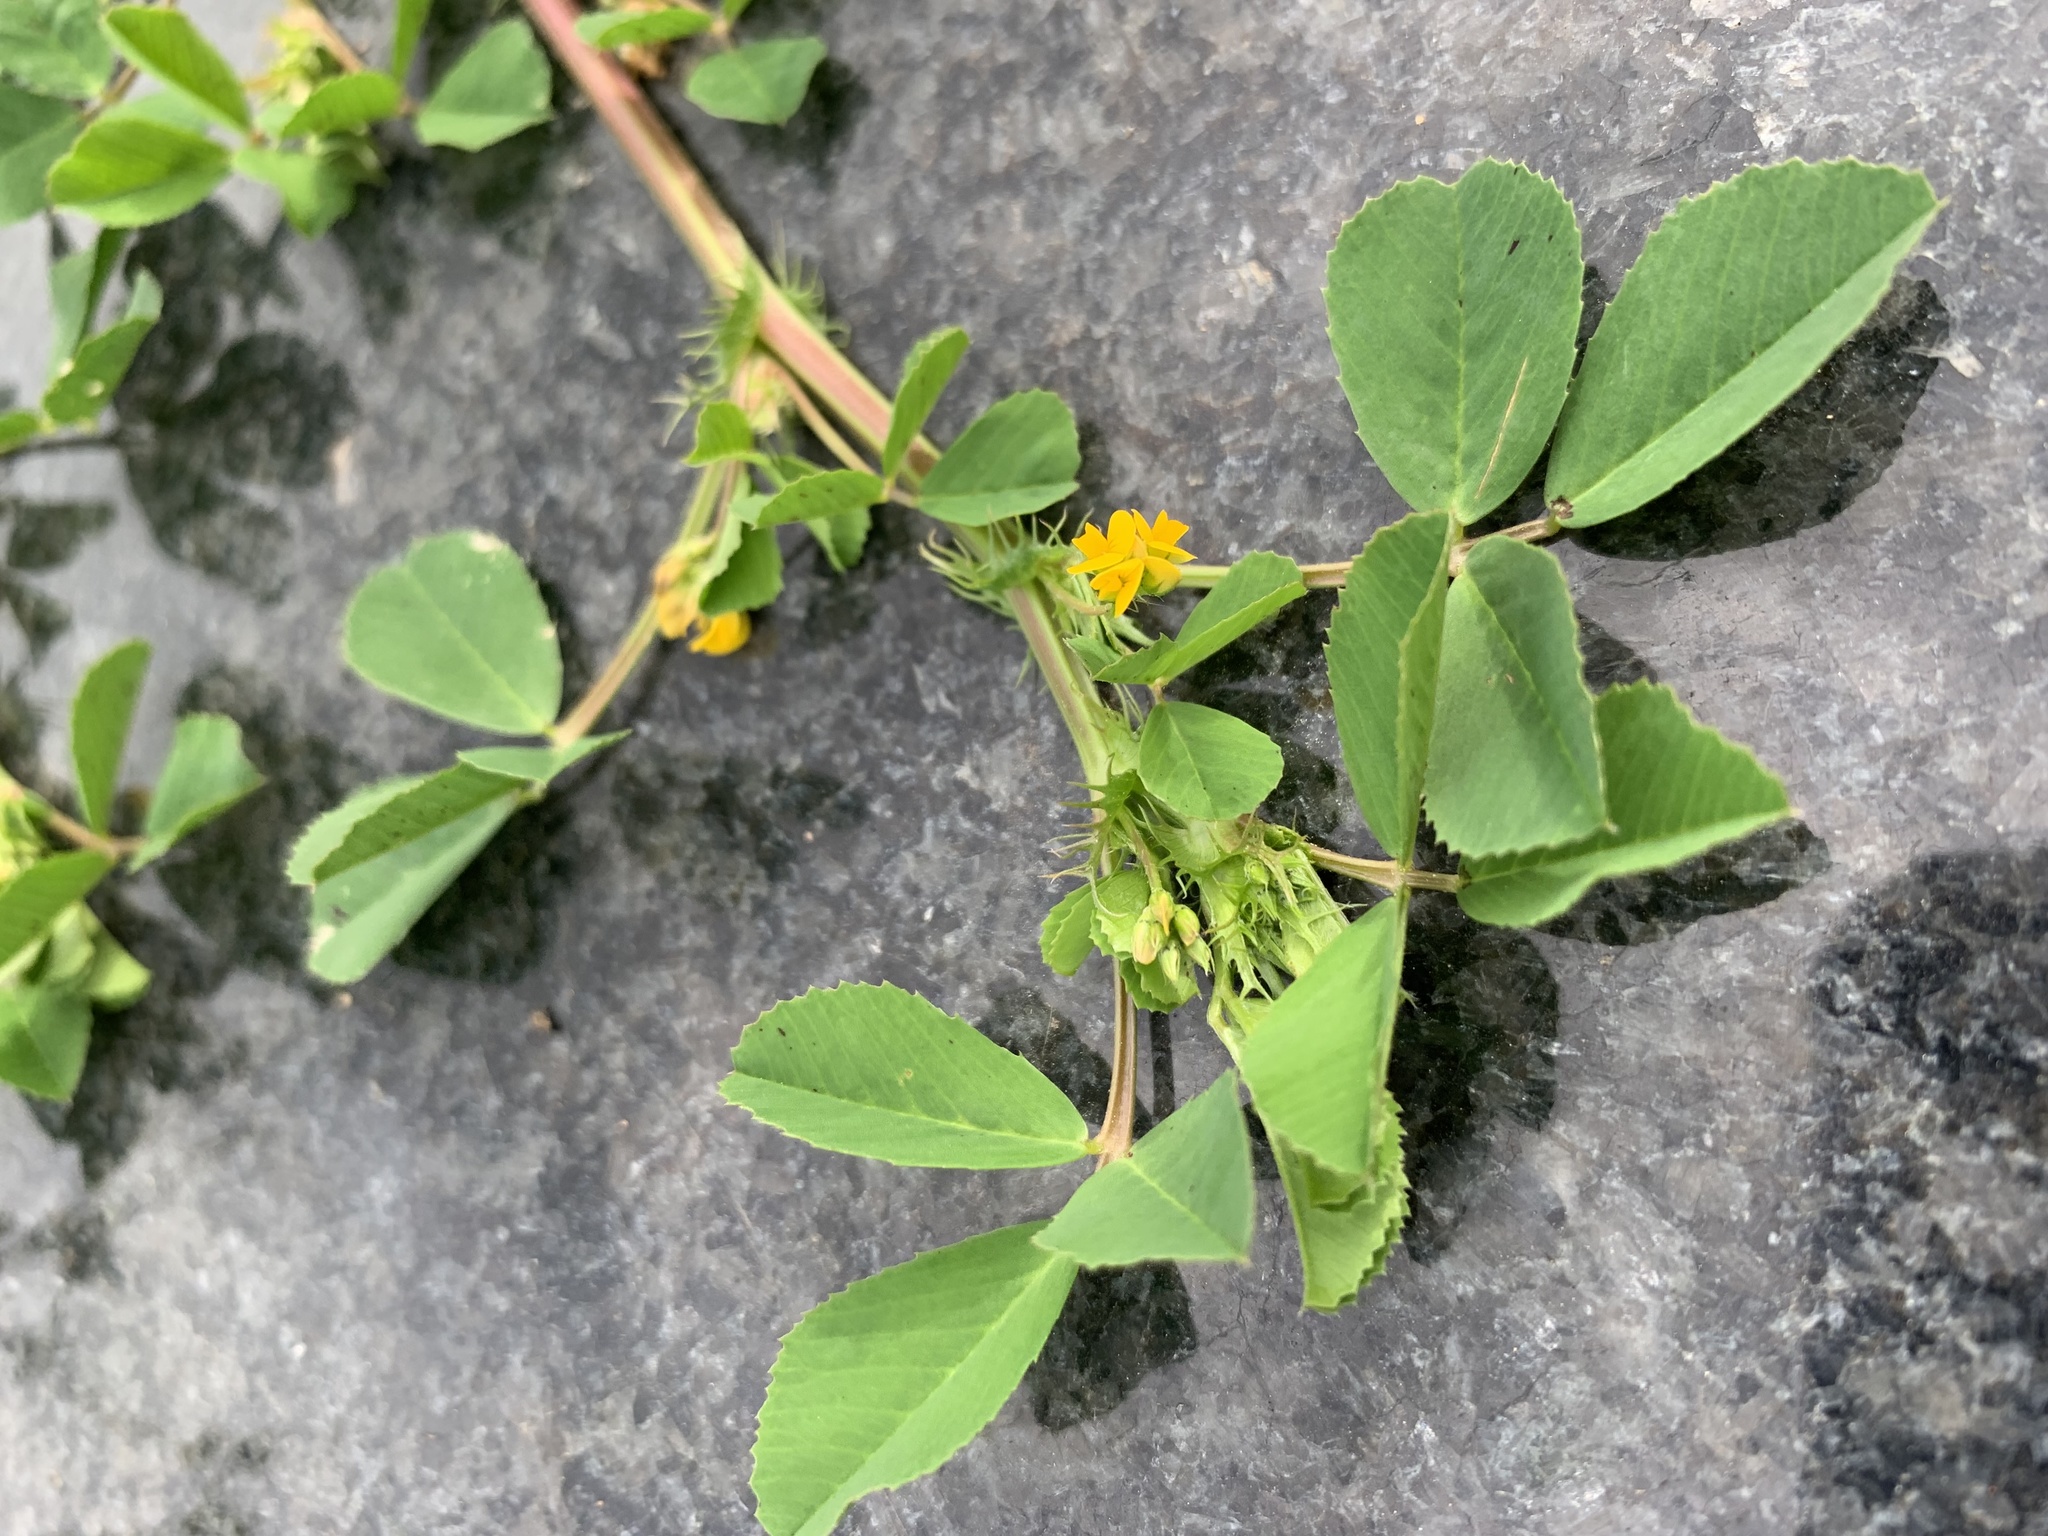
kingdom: Plantae
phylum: Tracheophyta
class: Magnoliopsida
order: Fabales
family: Fabaceae
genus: Medicago
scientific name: Medicago polymorpha
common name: Burclover
